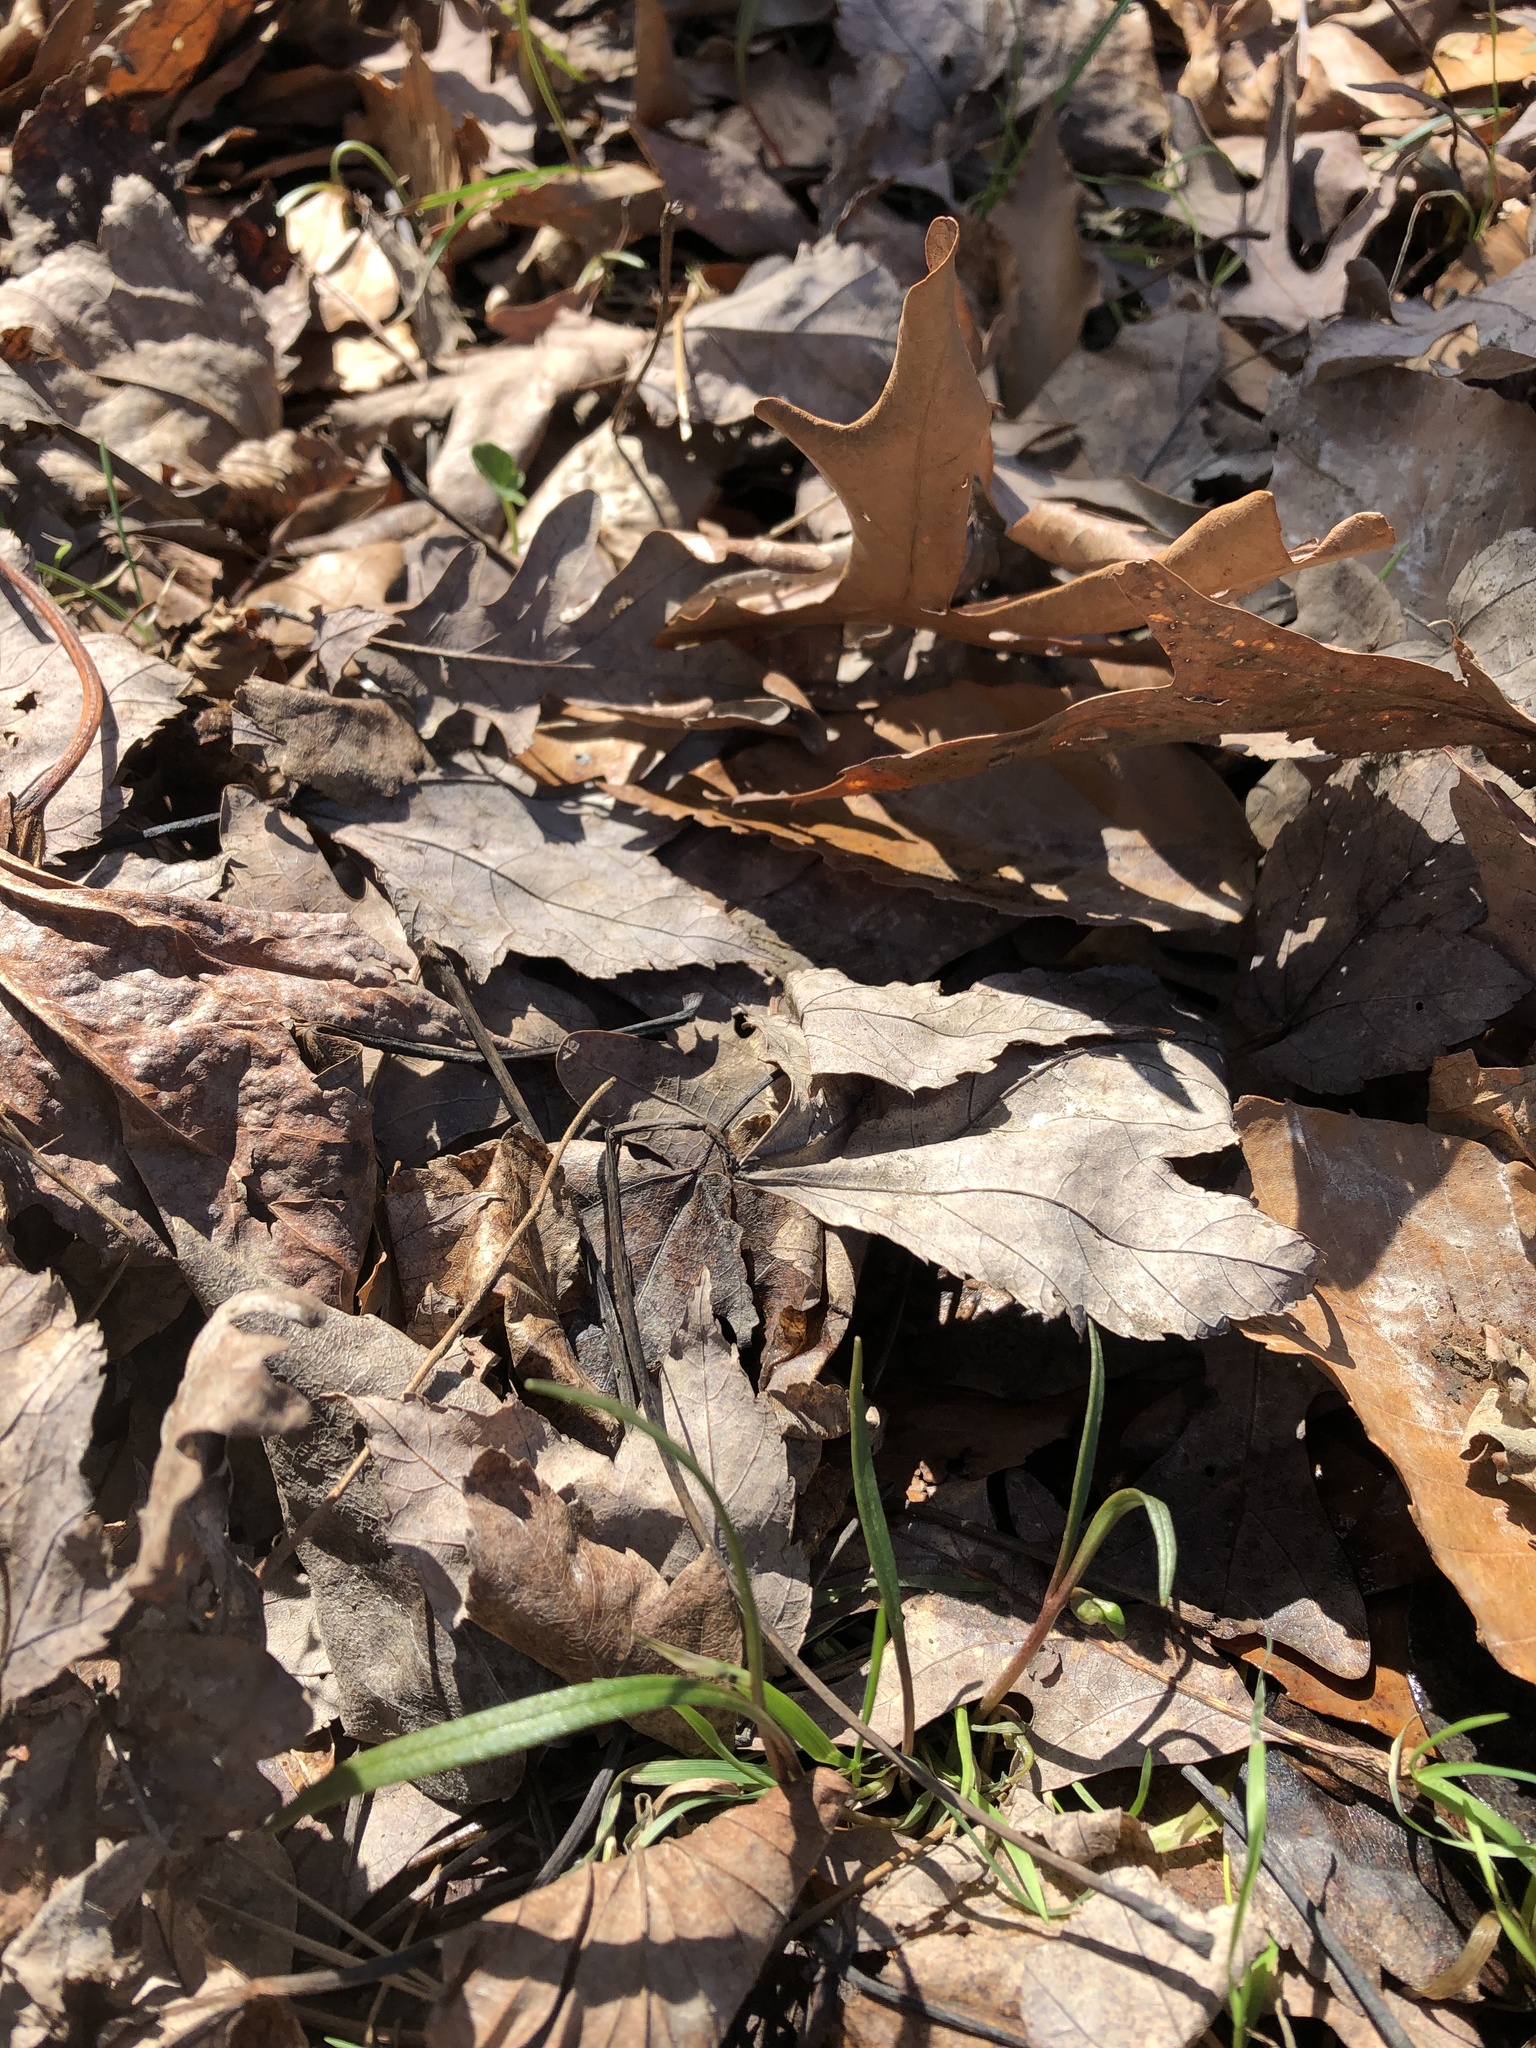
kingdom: Plantae
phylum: Tracheophyta
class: Magnoliopsida
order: Caryophyllales
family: Montiaceae
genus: Claytonia
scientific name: Claytonia virginica
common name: Virginia springbeauty
